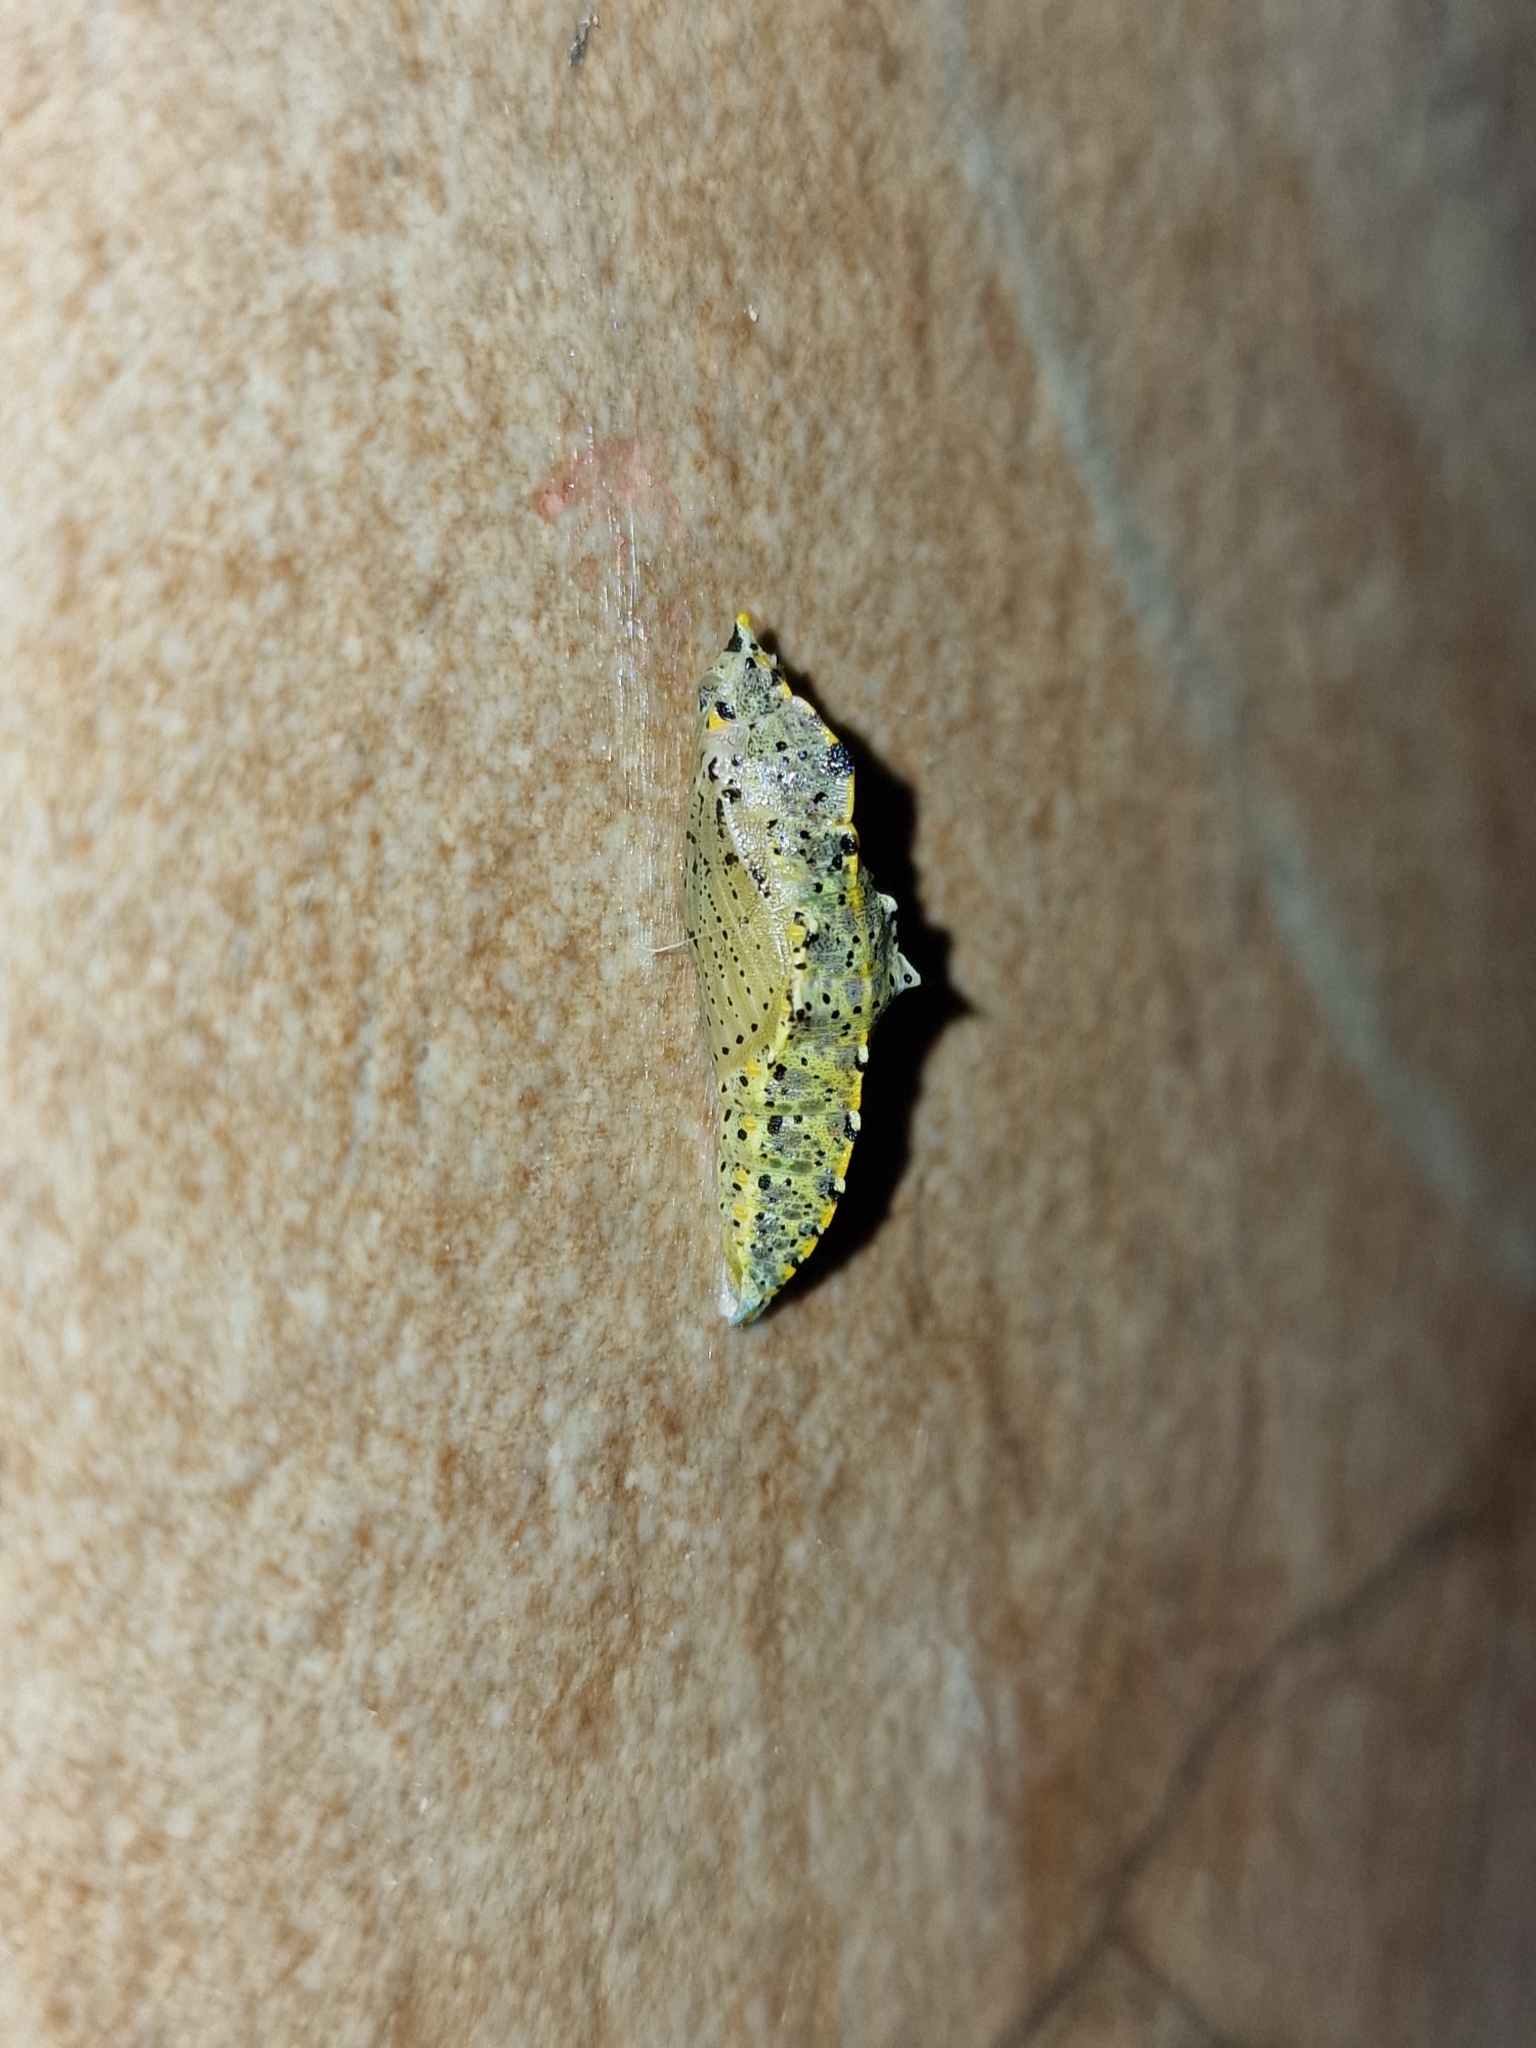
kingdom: Animalia
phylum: Arthropoda
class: Insecta
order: Lepidoptera
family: Pieridae
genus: Pieris
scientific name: Pieris brassicae
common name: Large white
